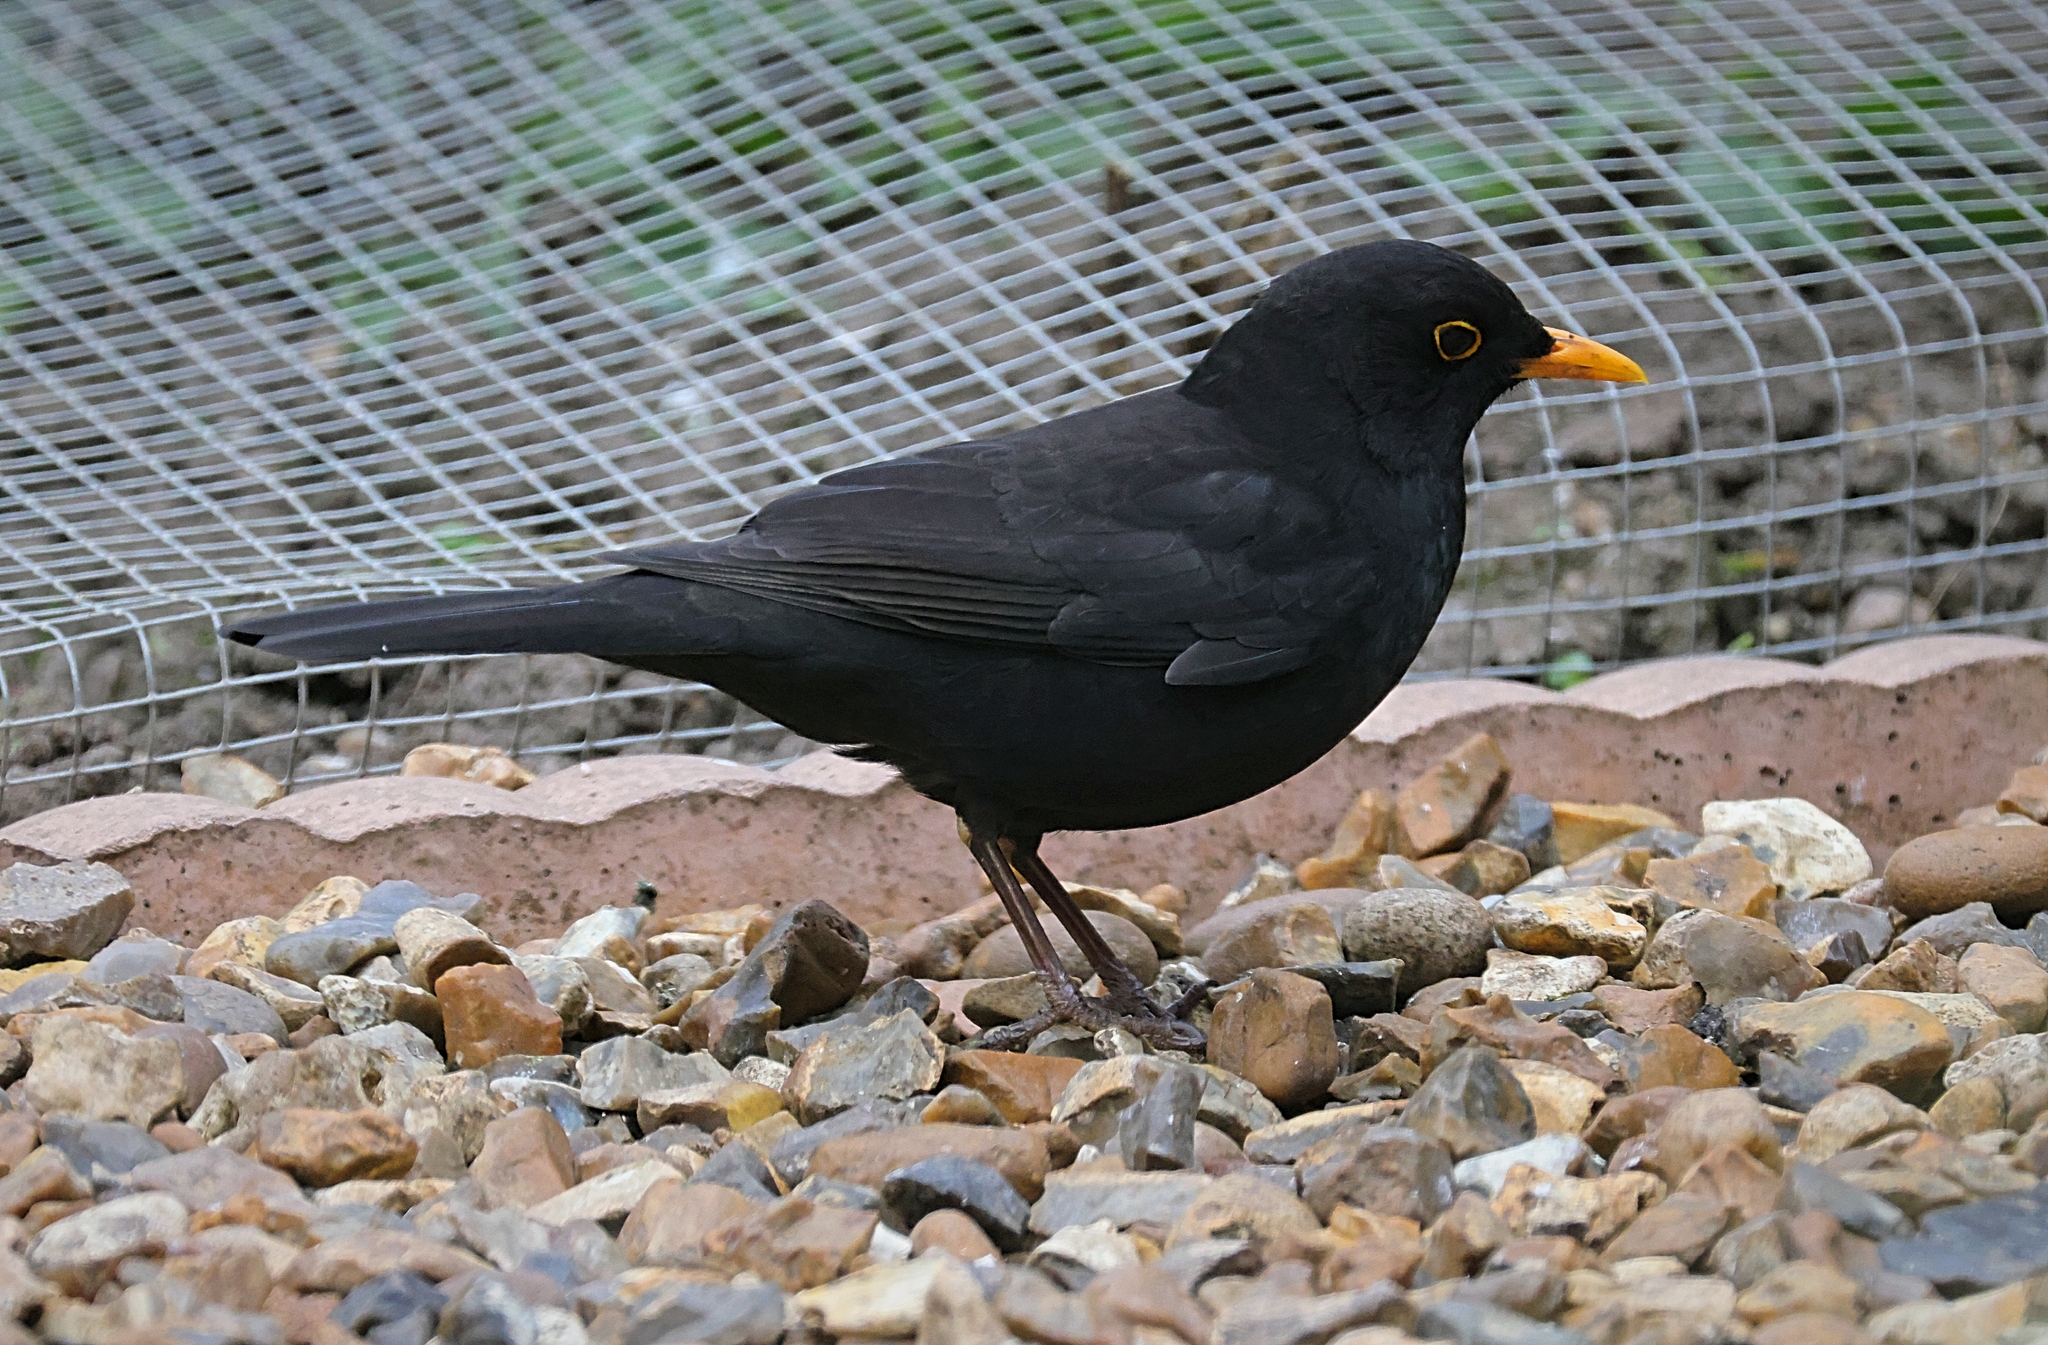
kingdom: Animalia
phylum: Chordata
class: Aves
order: Passeriformes
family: Turdidae
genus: Turdus
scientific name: Turdus merula
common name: Common blackbird
